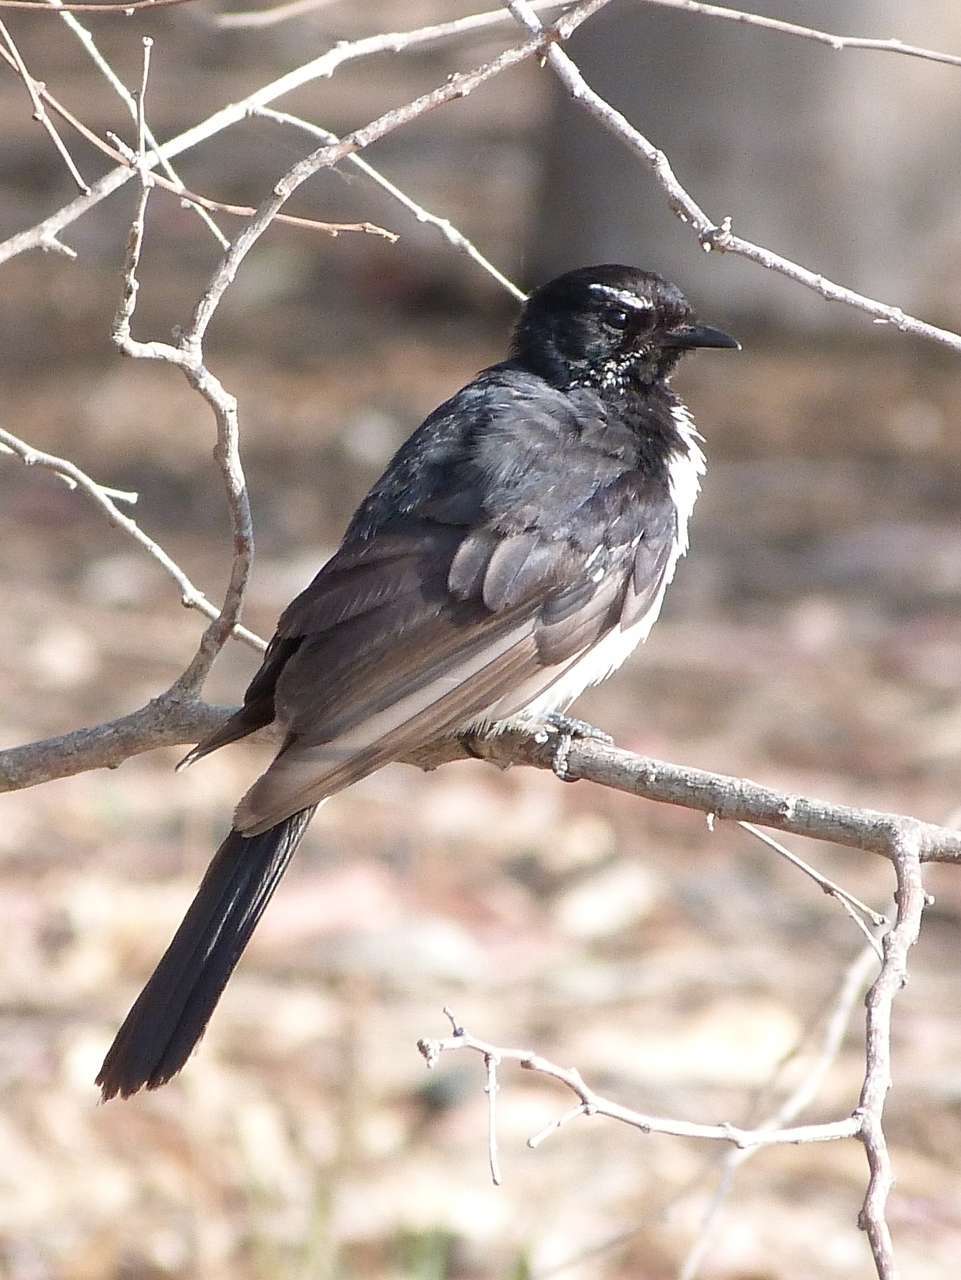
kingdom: Animalia
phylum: Chordata
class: Aves
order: Passeriformes
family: Rhipiduridae
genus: Rhipidura
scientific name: Rhipidura leucophrys
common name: Willie wagtail
